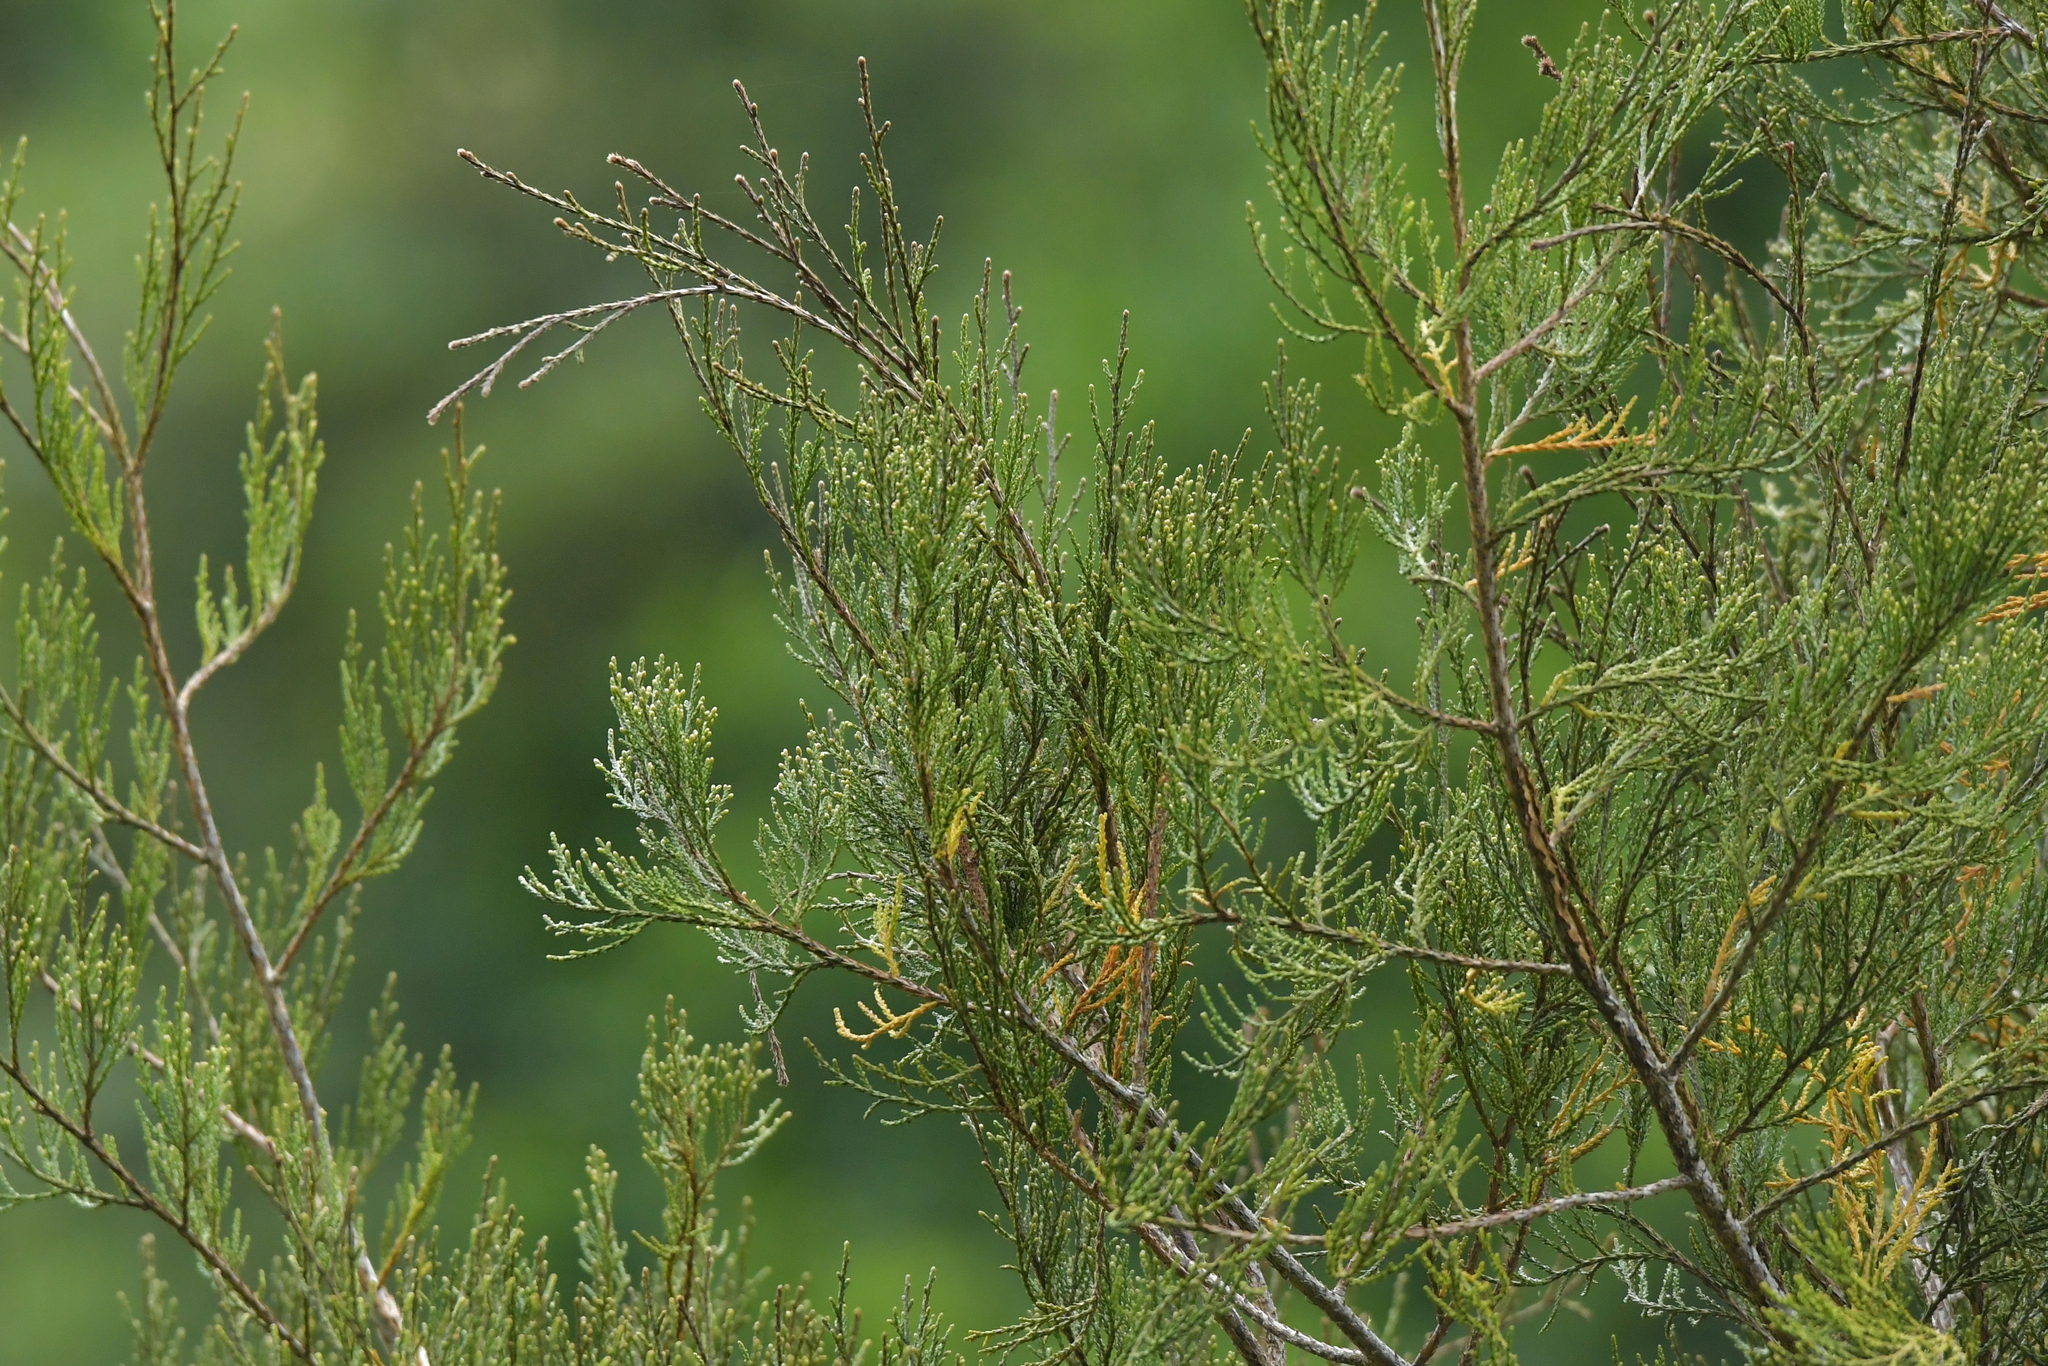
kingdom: Plantae
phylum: Tracheophyta
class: Pinopsida
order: Pinales
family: Podocarpaceae
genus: Dacrycarpus
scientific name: Dacrycarpus dacrydioides
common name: White pine
